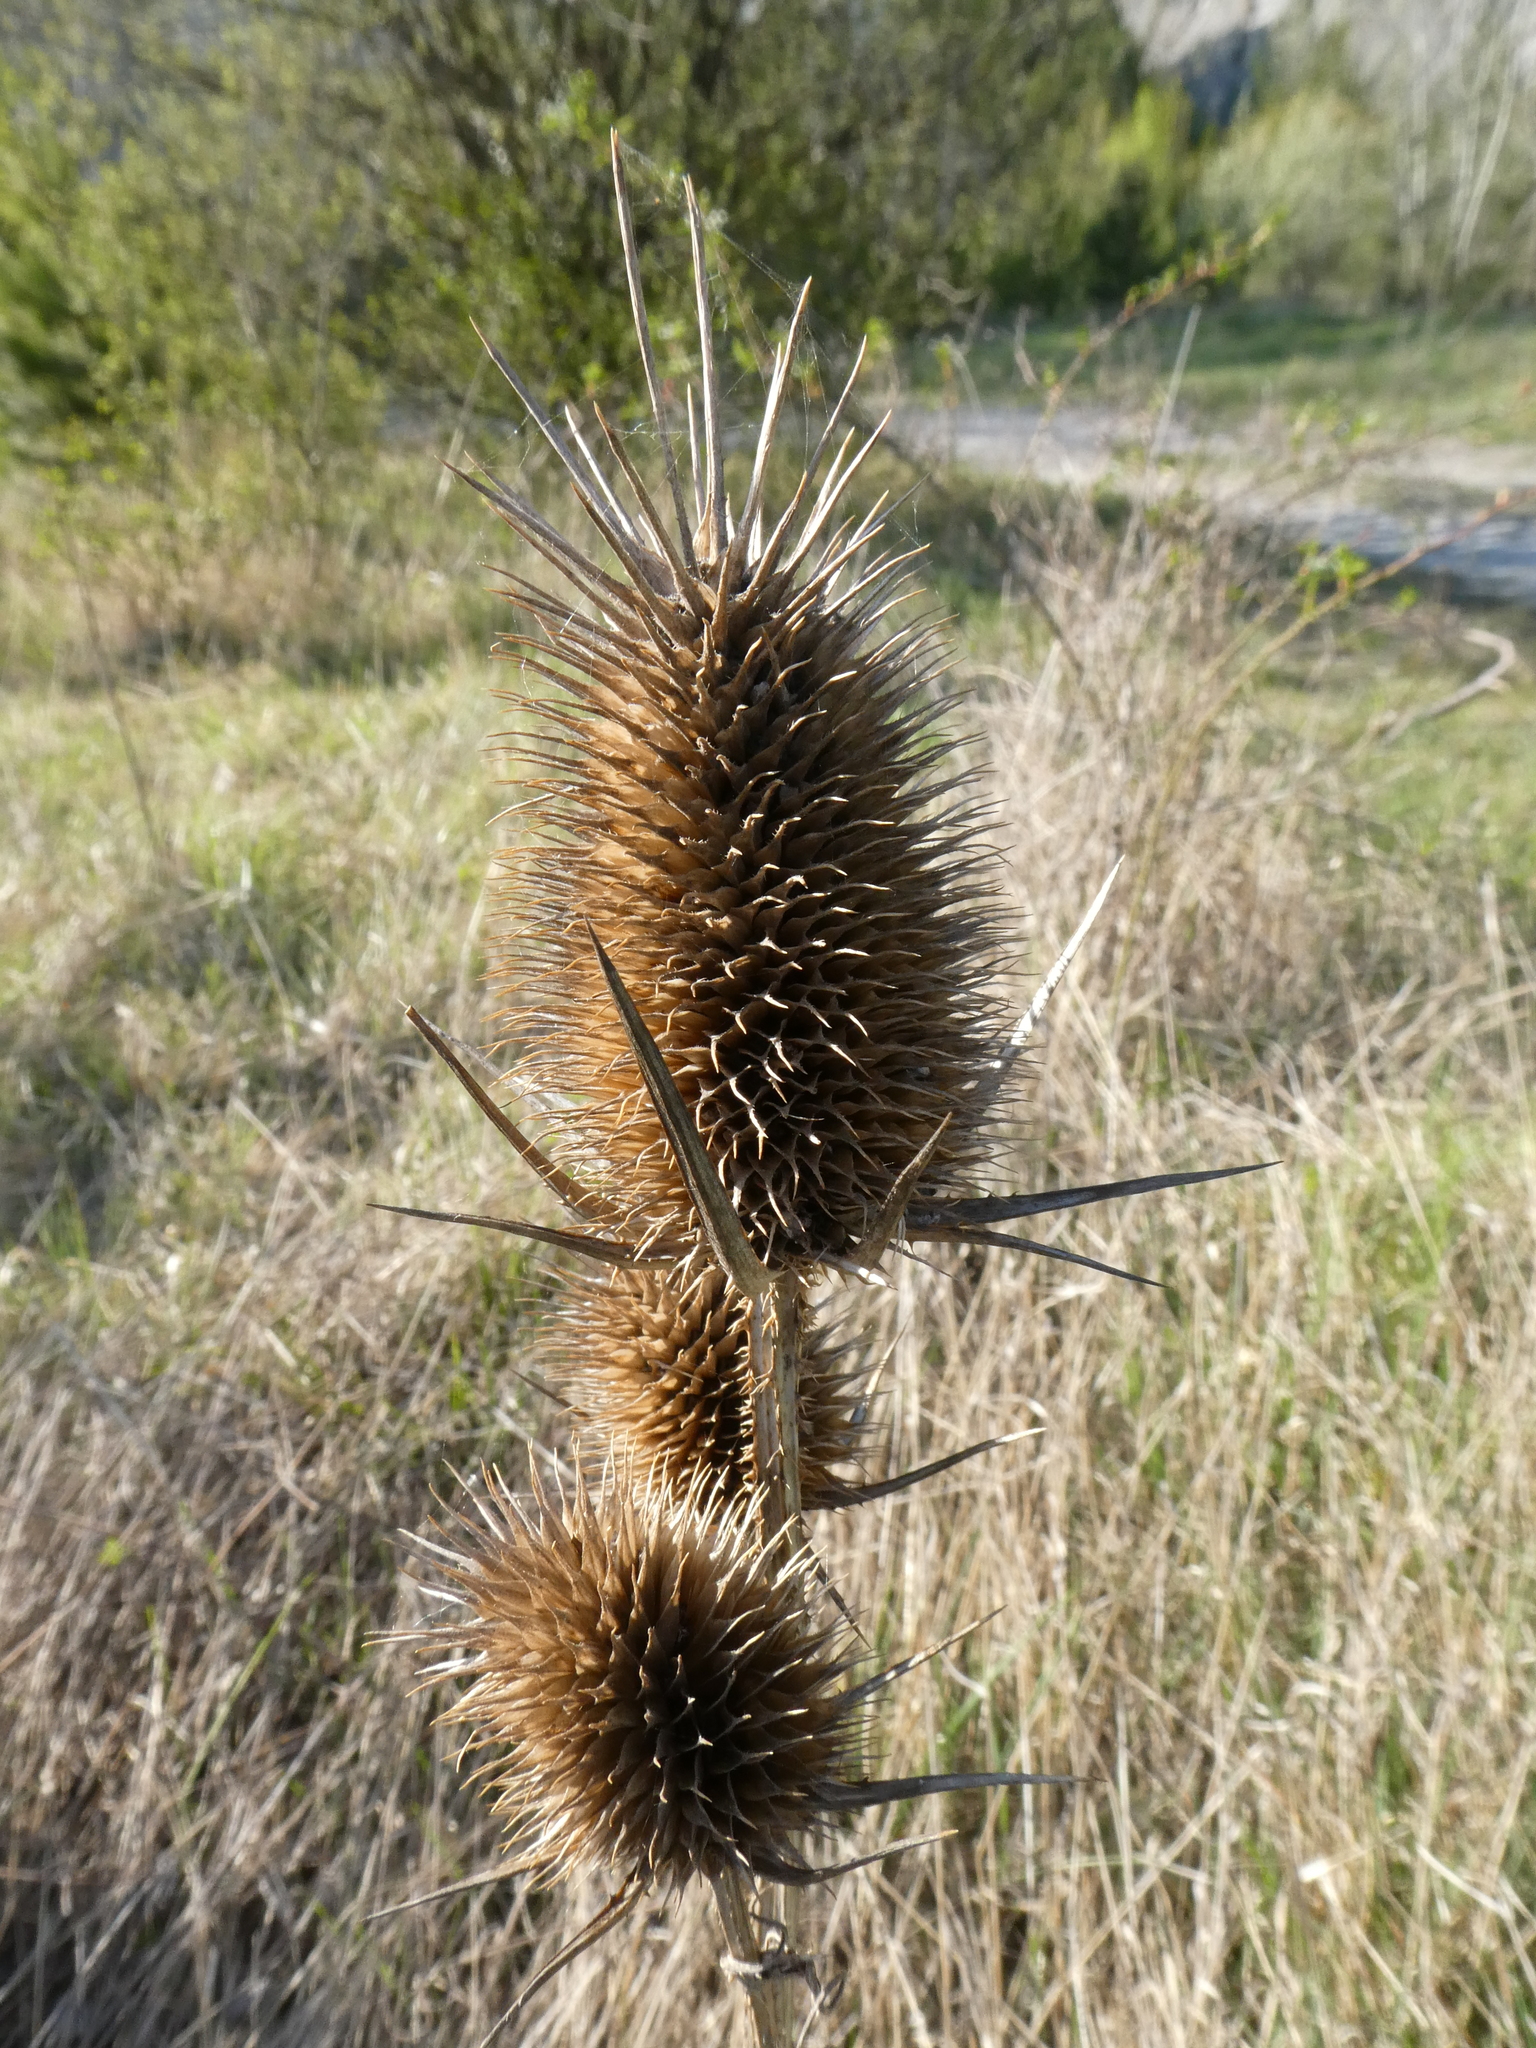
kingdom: Plantae
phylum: Tracheophyta
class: Magnoliopsida
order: Dipsacales
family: Caprifoliaceae
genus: Dipsacus
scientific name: Dipsacus laciniatus
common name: Cut-leaved teasel
